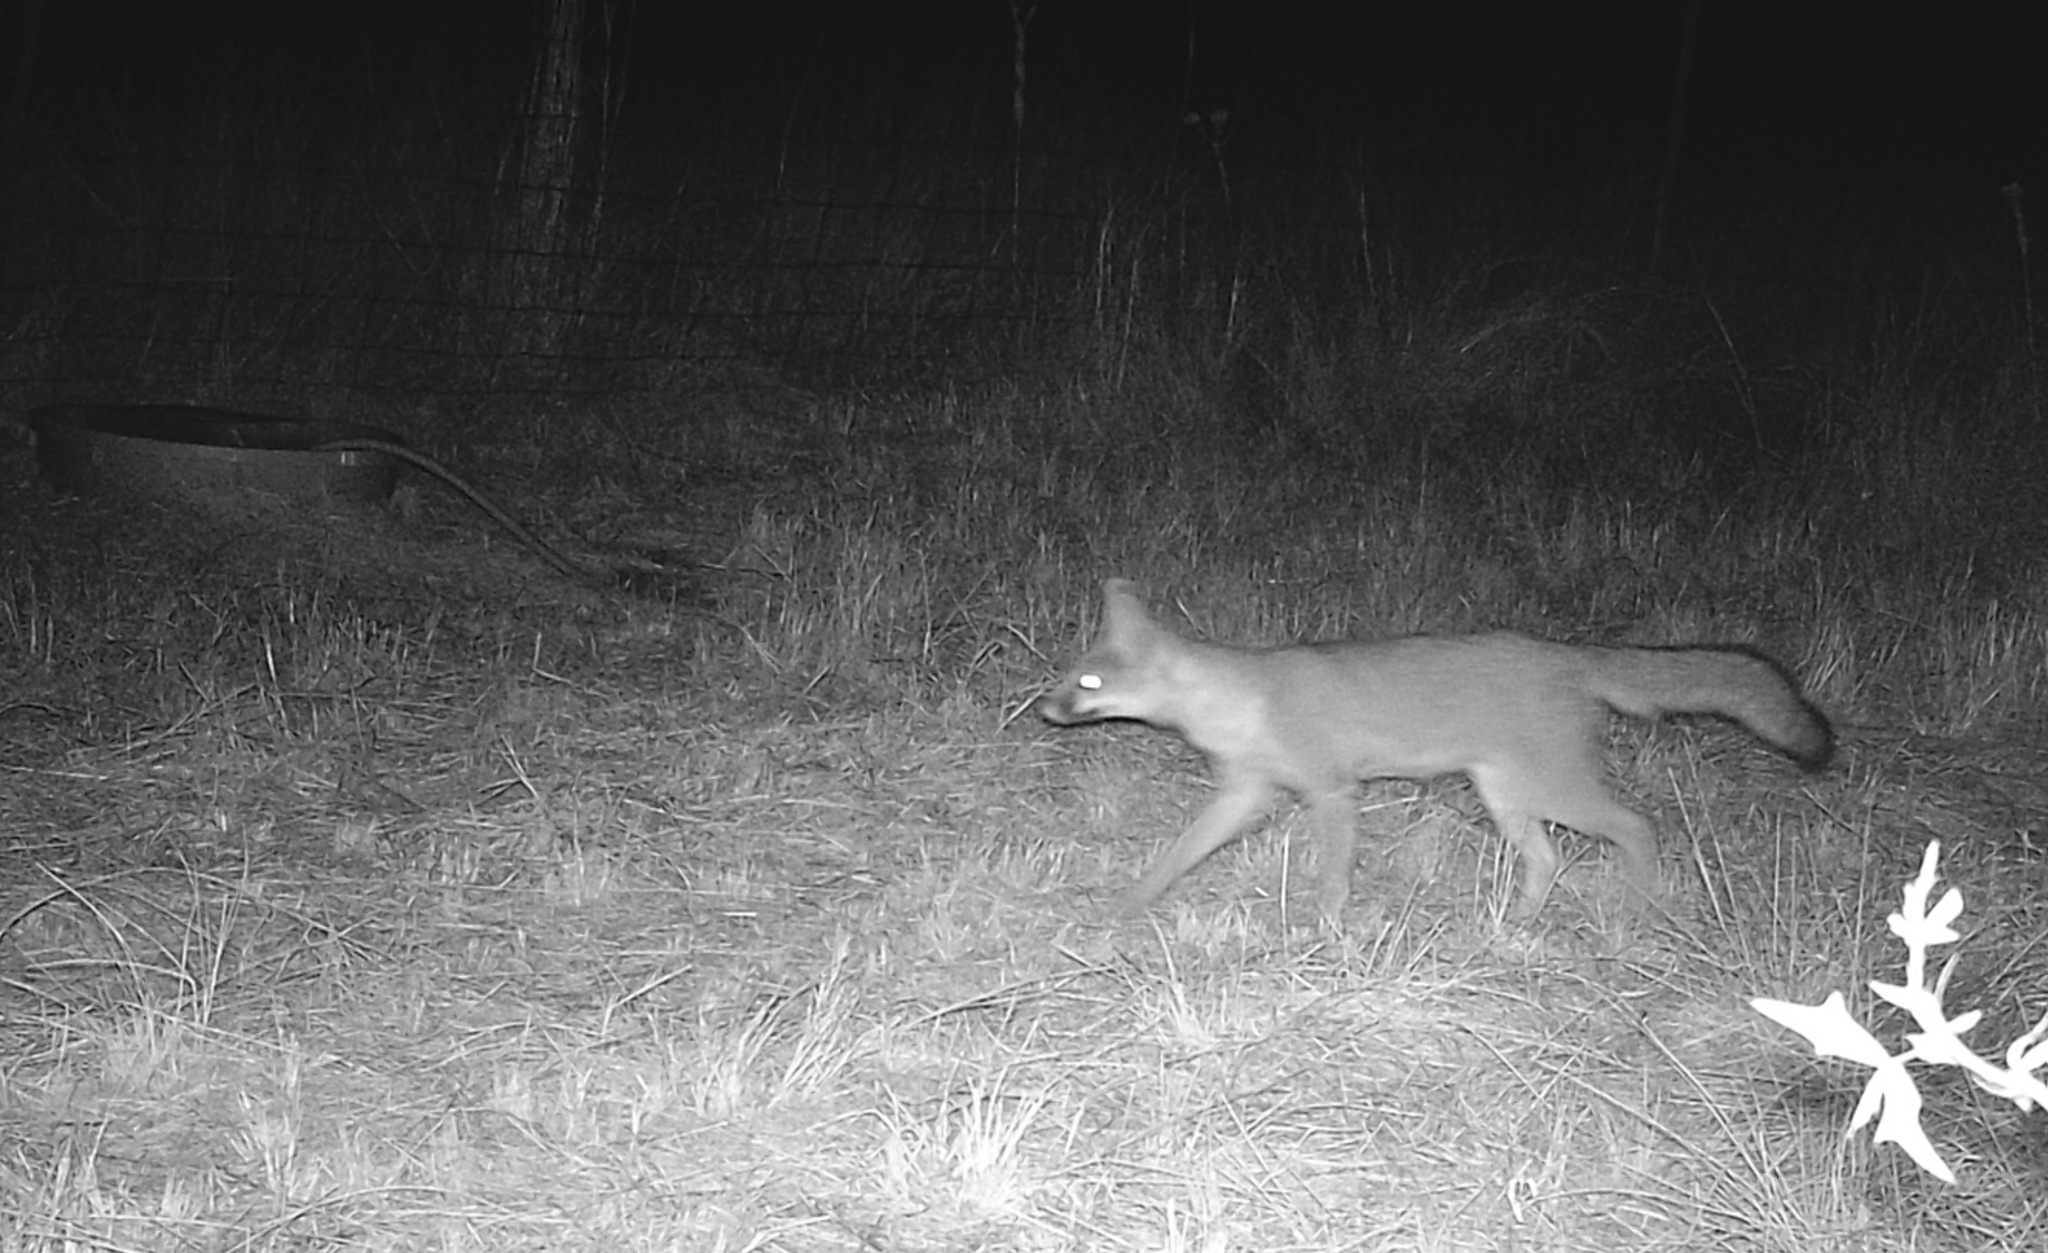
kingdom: Animalia
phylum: Chordata
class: Mammalia
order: Carnivora
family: Canidae
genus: Urocyon
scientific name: Urocyon cinereoargenteus
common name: Gray fox
